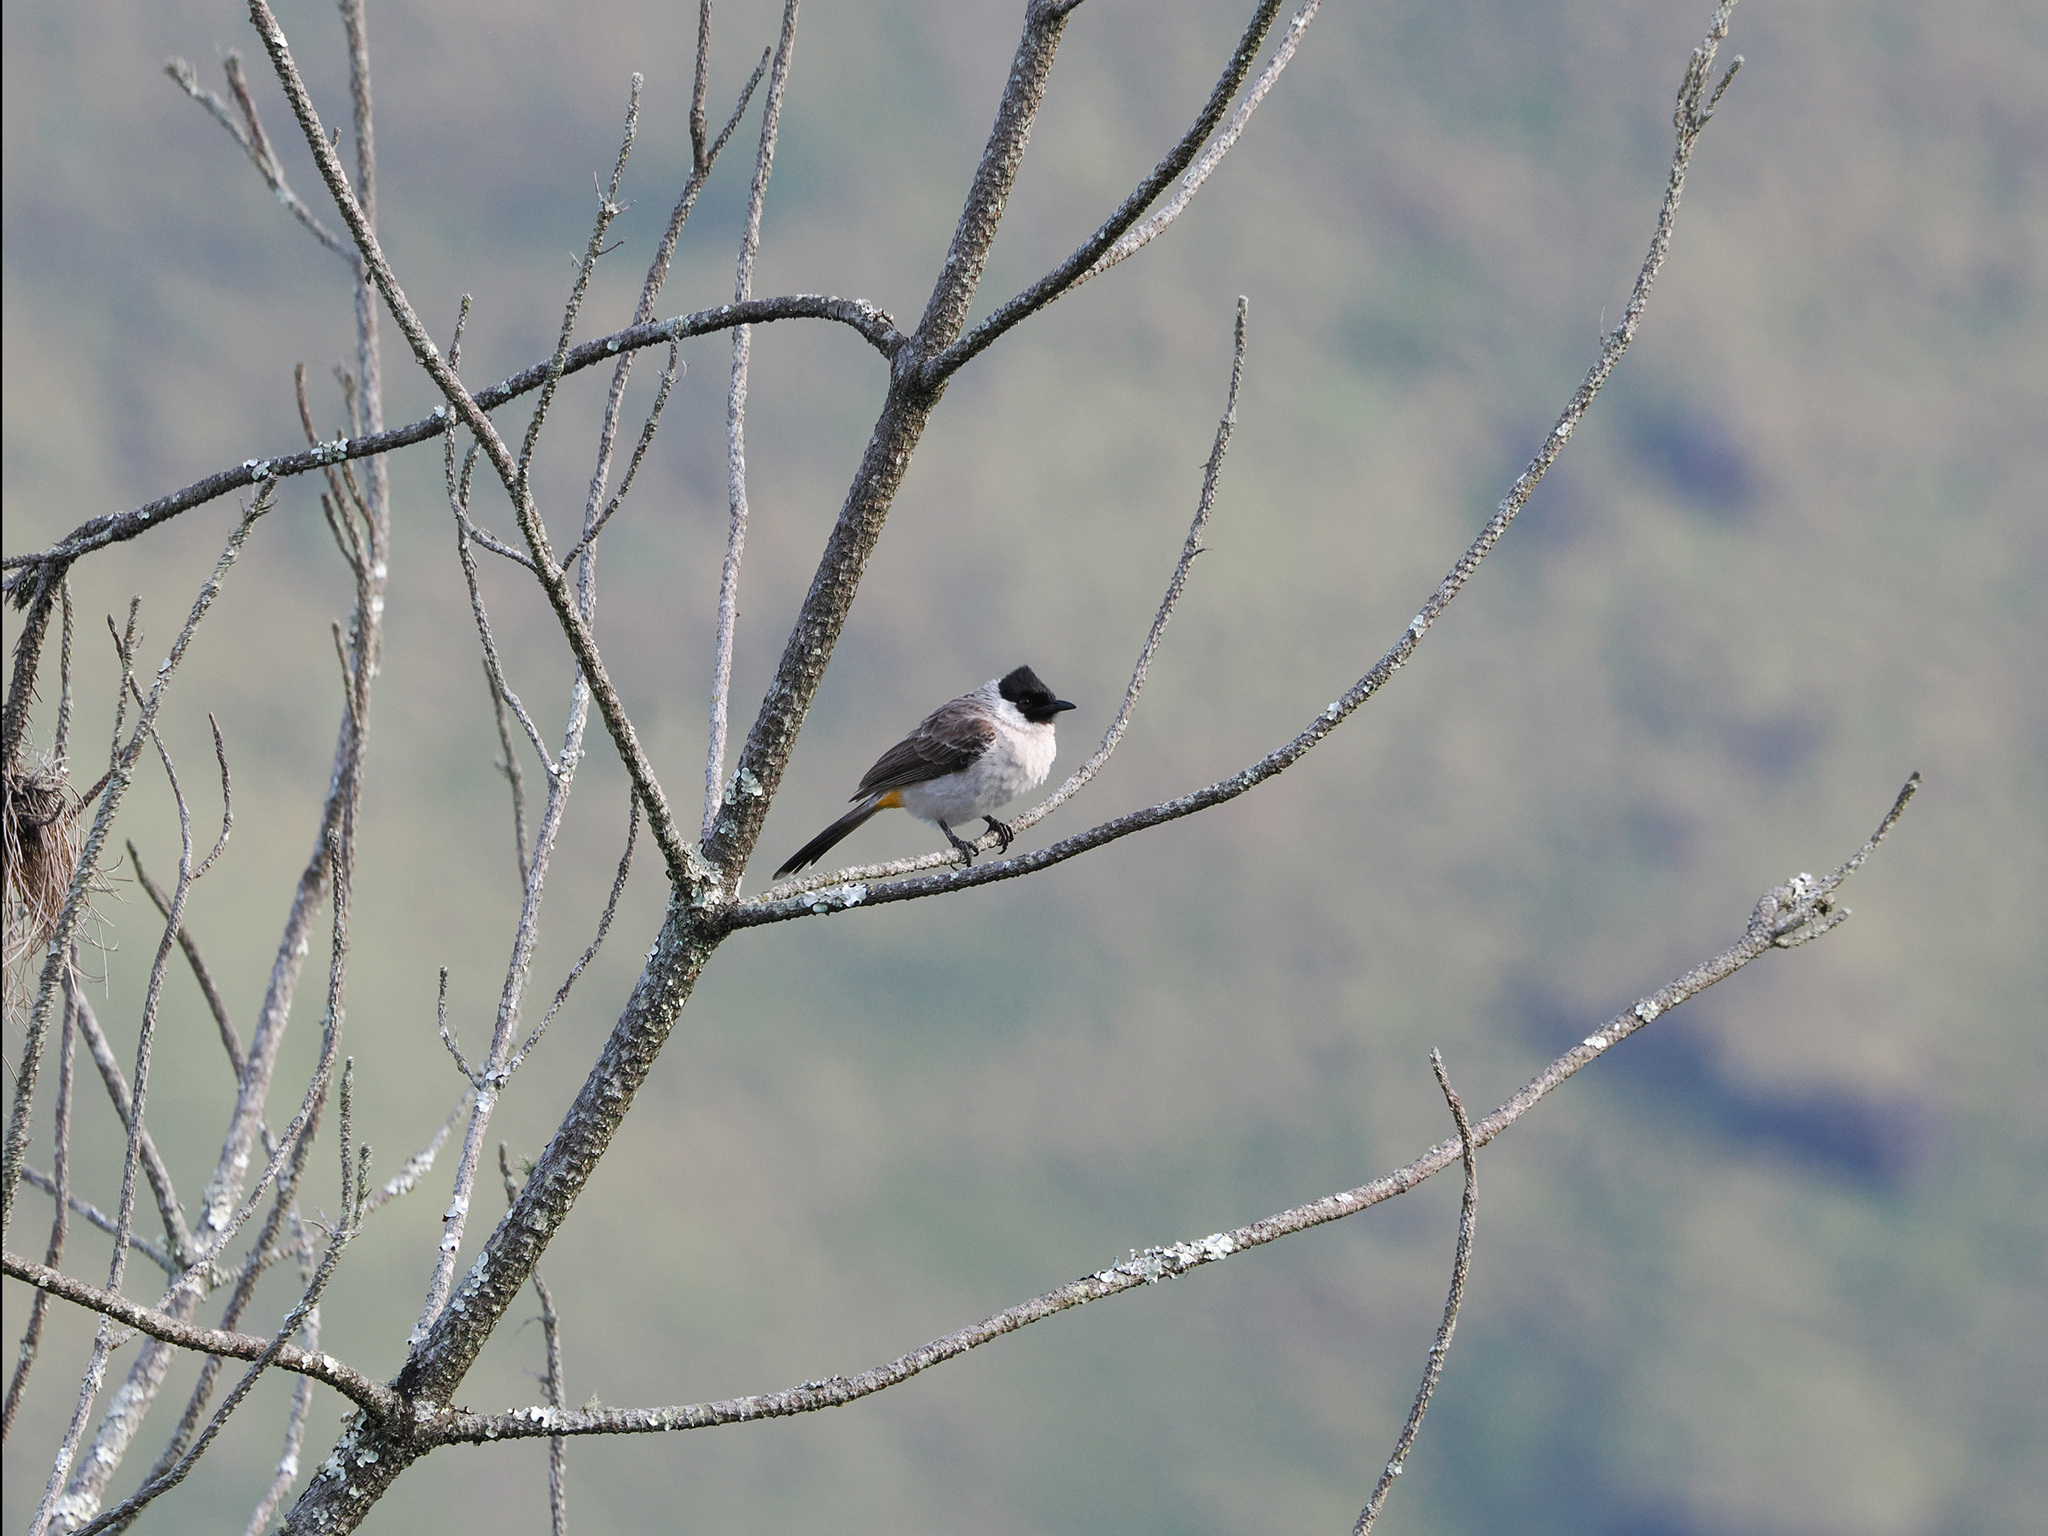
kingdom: Animalia
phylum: Chordata
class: Aves
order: Passeriformes
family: Pycnonotidae
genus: Pycnonotus
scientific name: Pycnonotus aurigaster
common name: Sooty-headed bulbul
